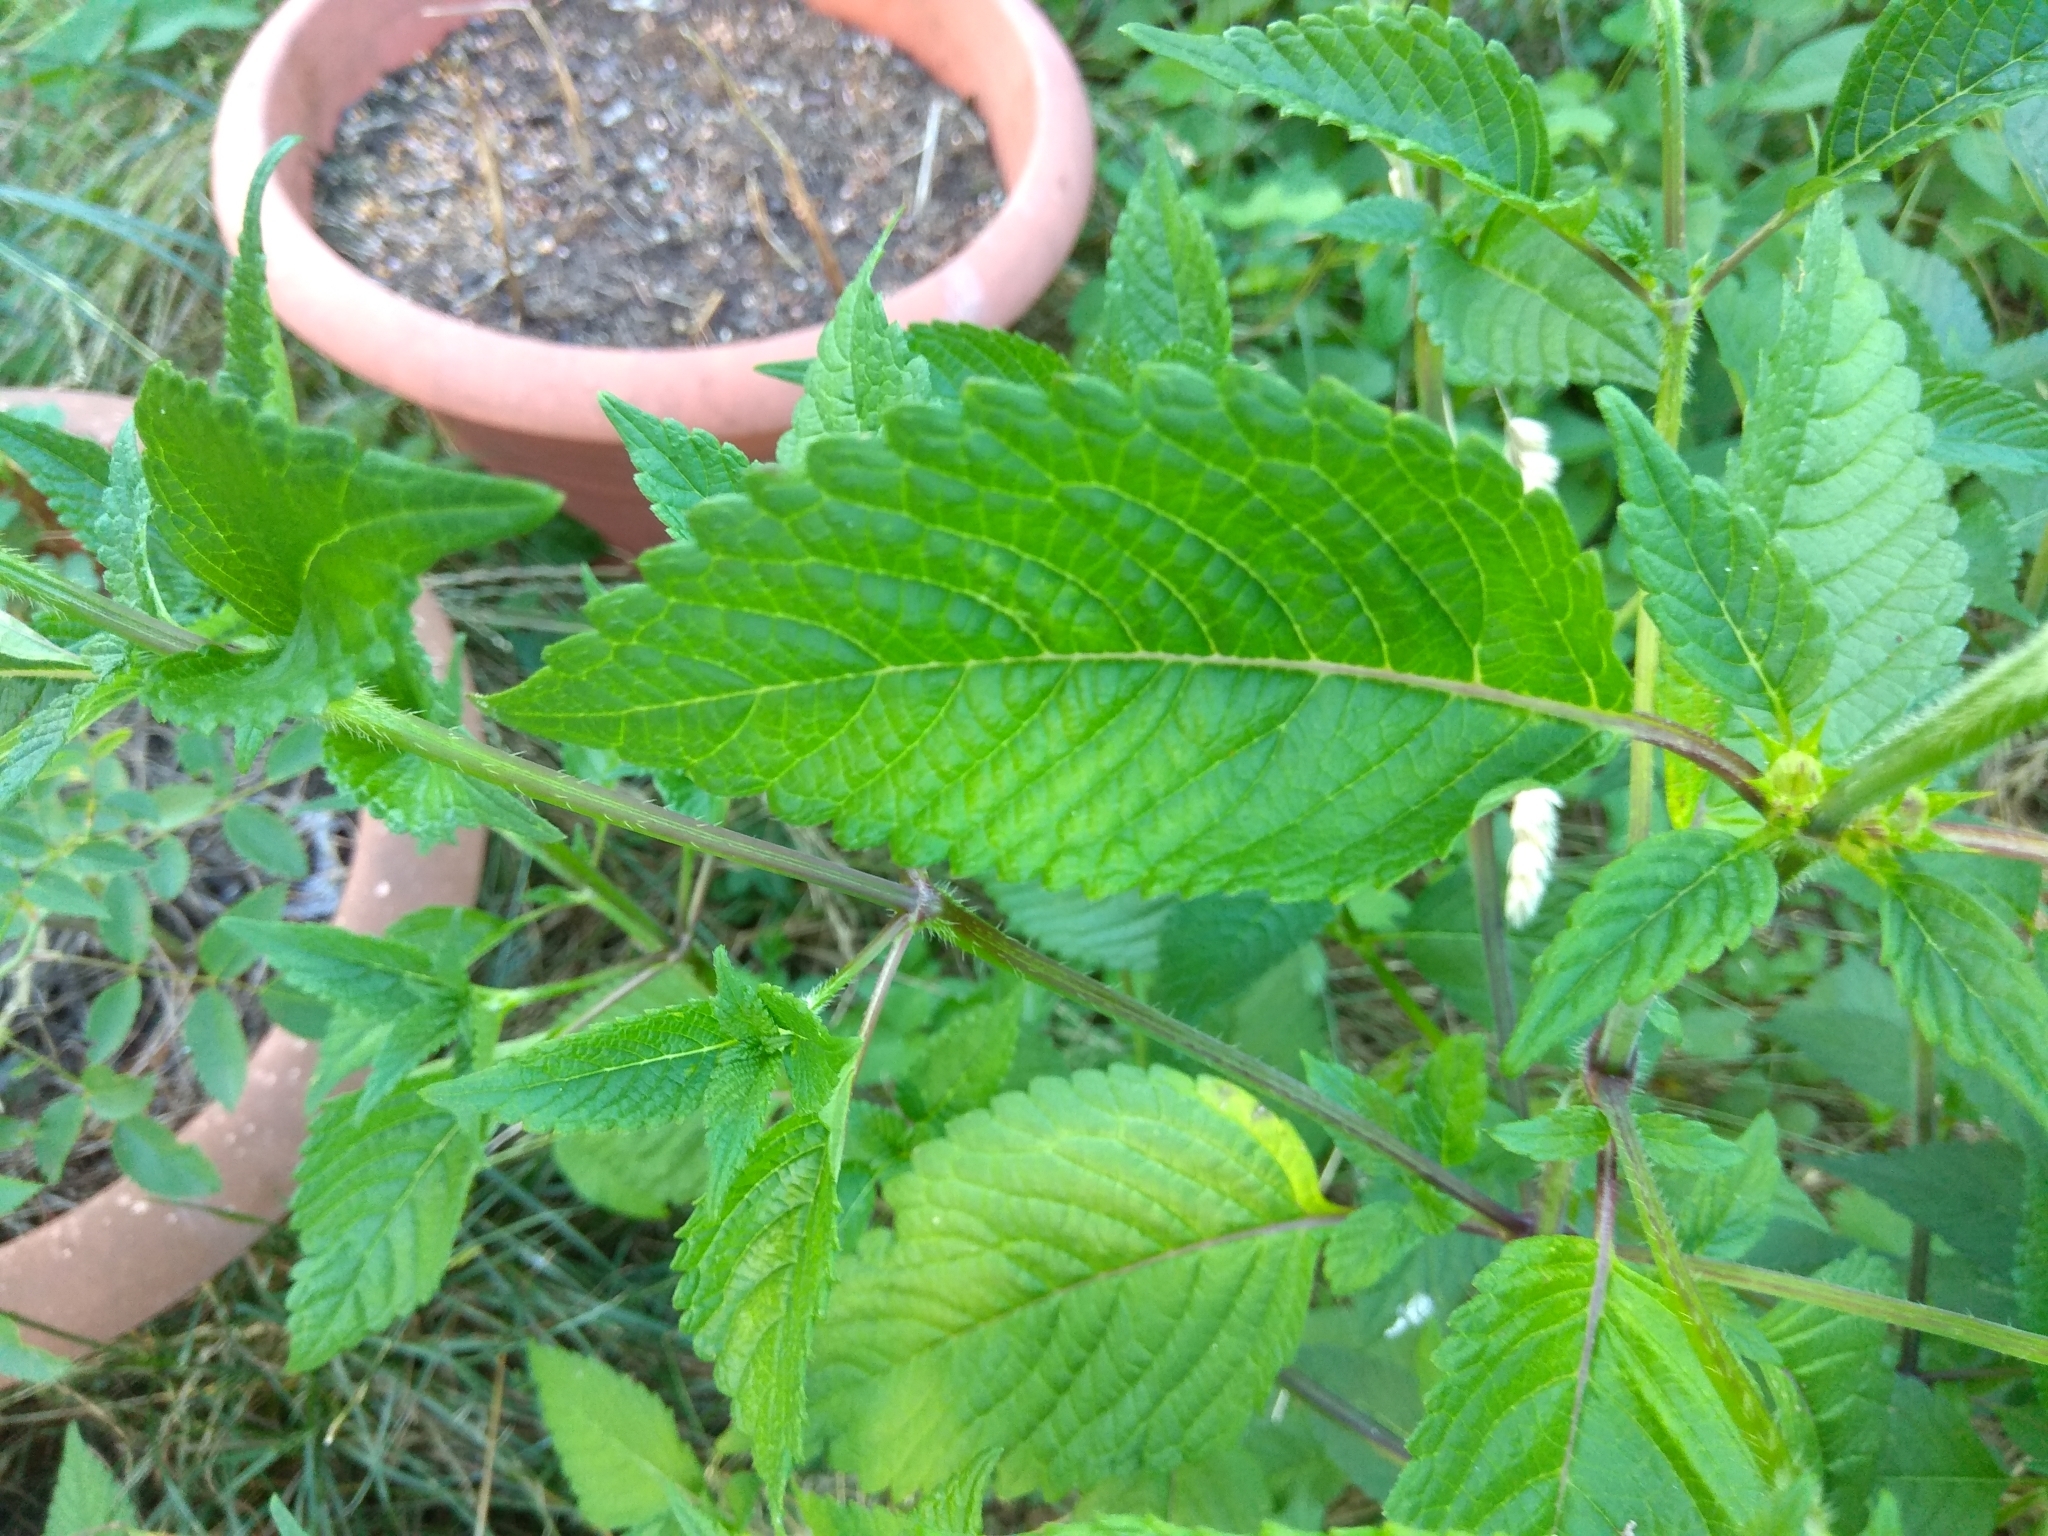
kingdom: Plantae
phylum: Tracheophyta
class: Magnoliopsida
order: Lamiales
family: Lamiaceae
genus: Galeopsis
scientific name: Galeopsis tetrahit
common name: Common hemp-nettle
